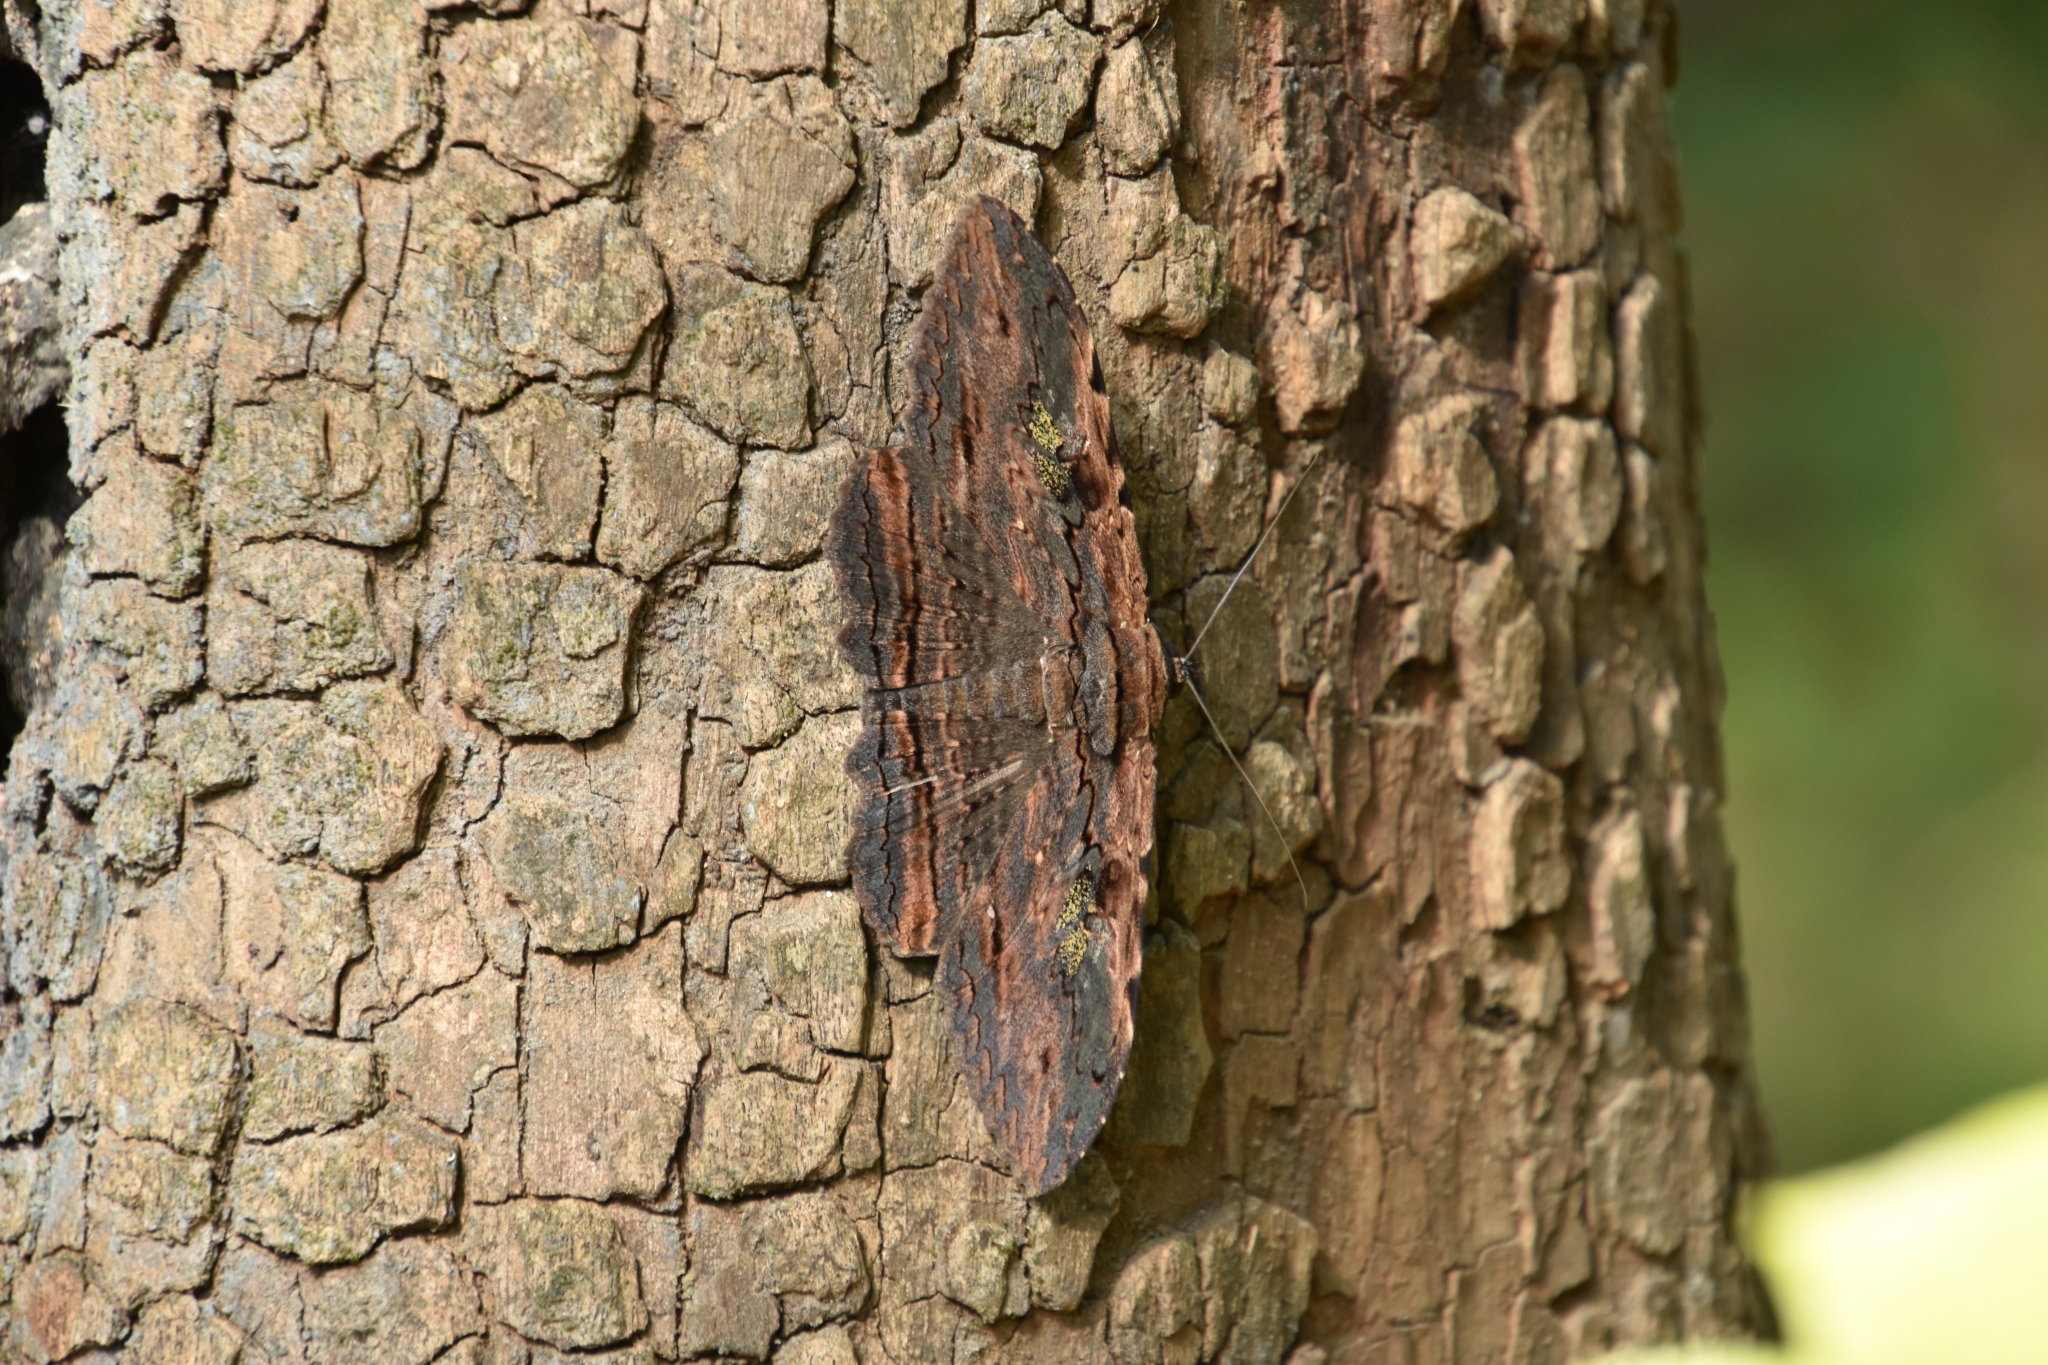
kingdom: Animalia
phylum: Arthropoda
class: Insecta
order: Lepidoptera
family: Erebidae
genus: Anisoneura
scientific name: Anisoneura aluco
